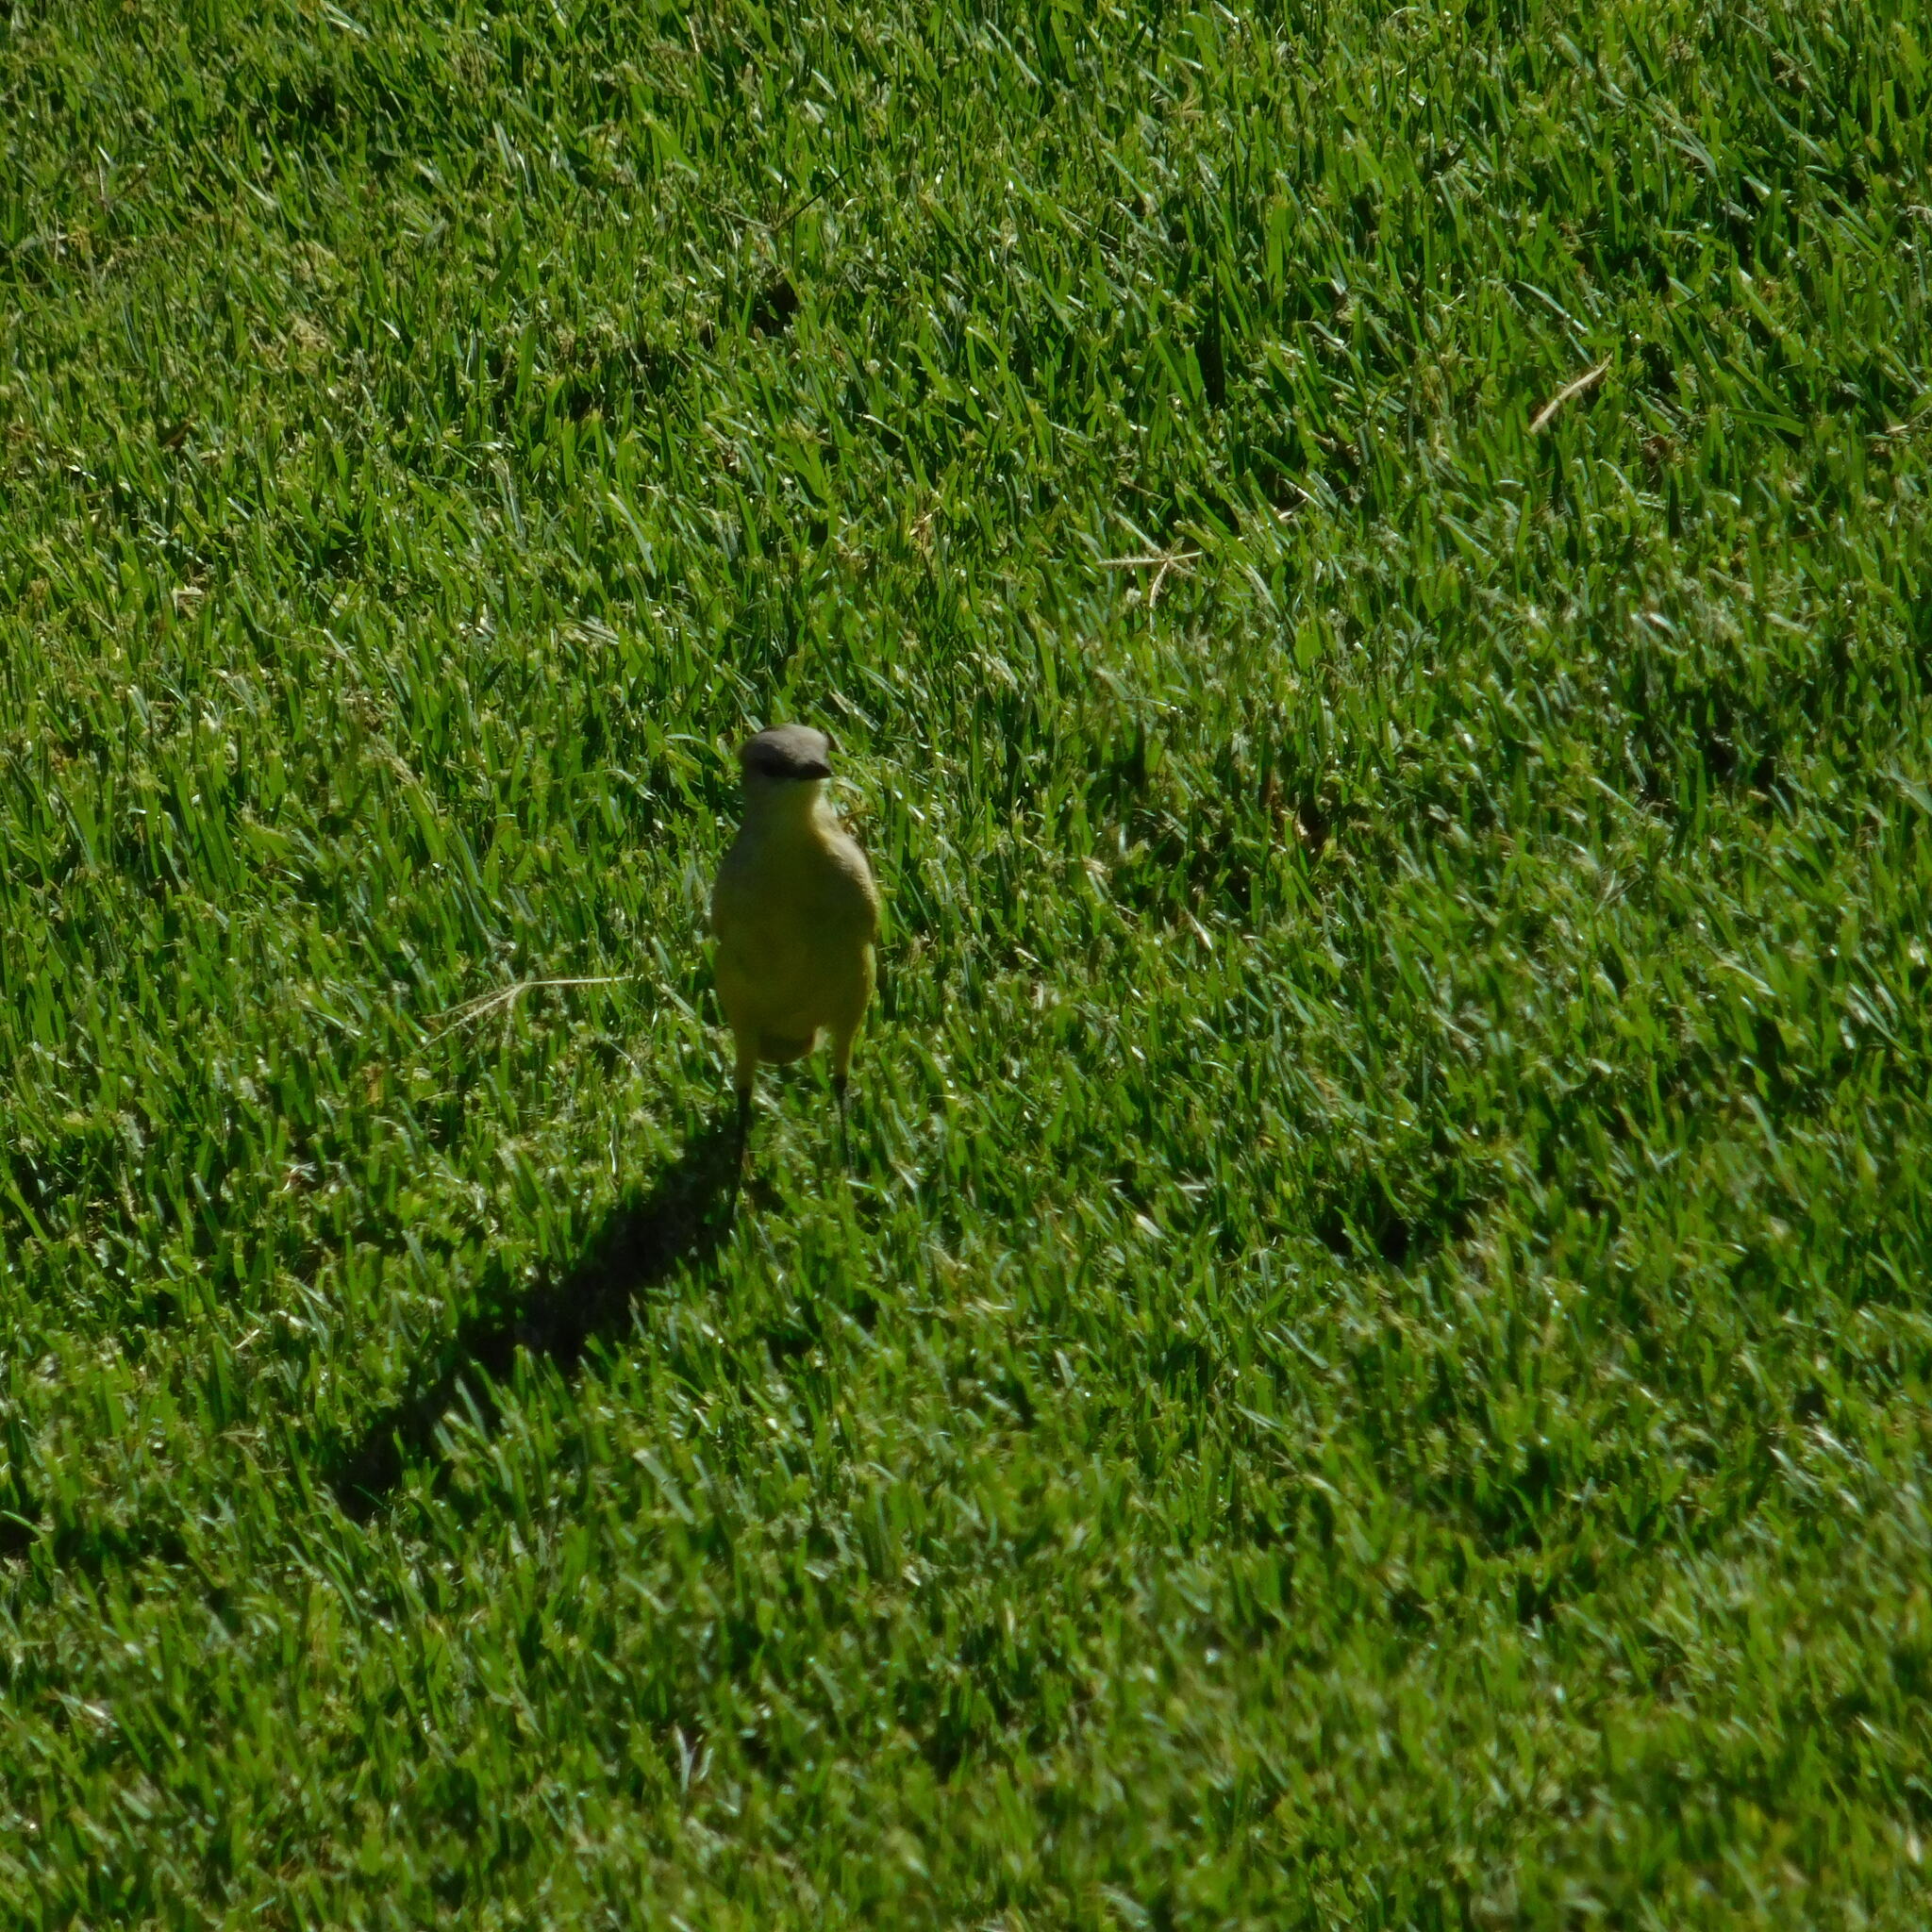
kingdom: Animalia
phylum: Chordata
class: Aves
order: Passeriformes
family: Tyrannidae
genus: Machetornis
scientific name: Machetornis rixosa
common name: Cattle tyrant
